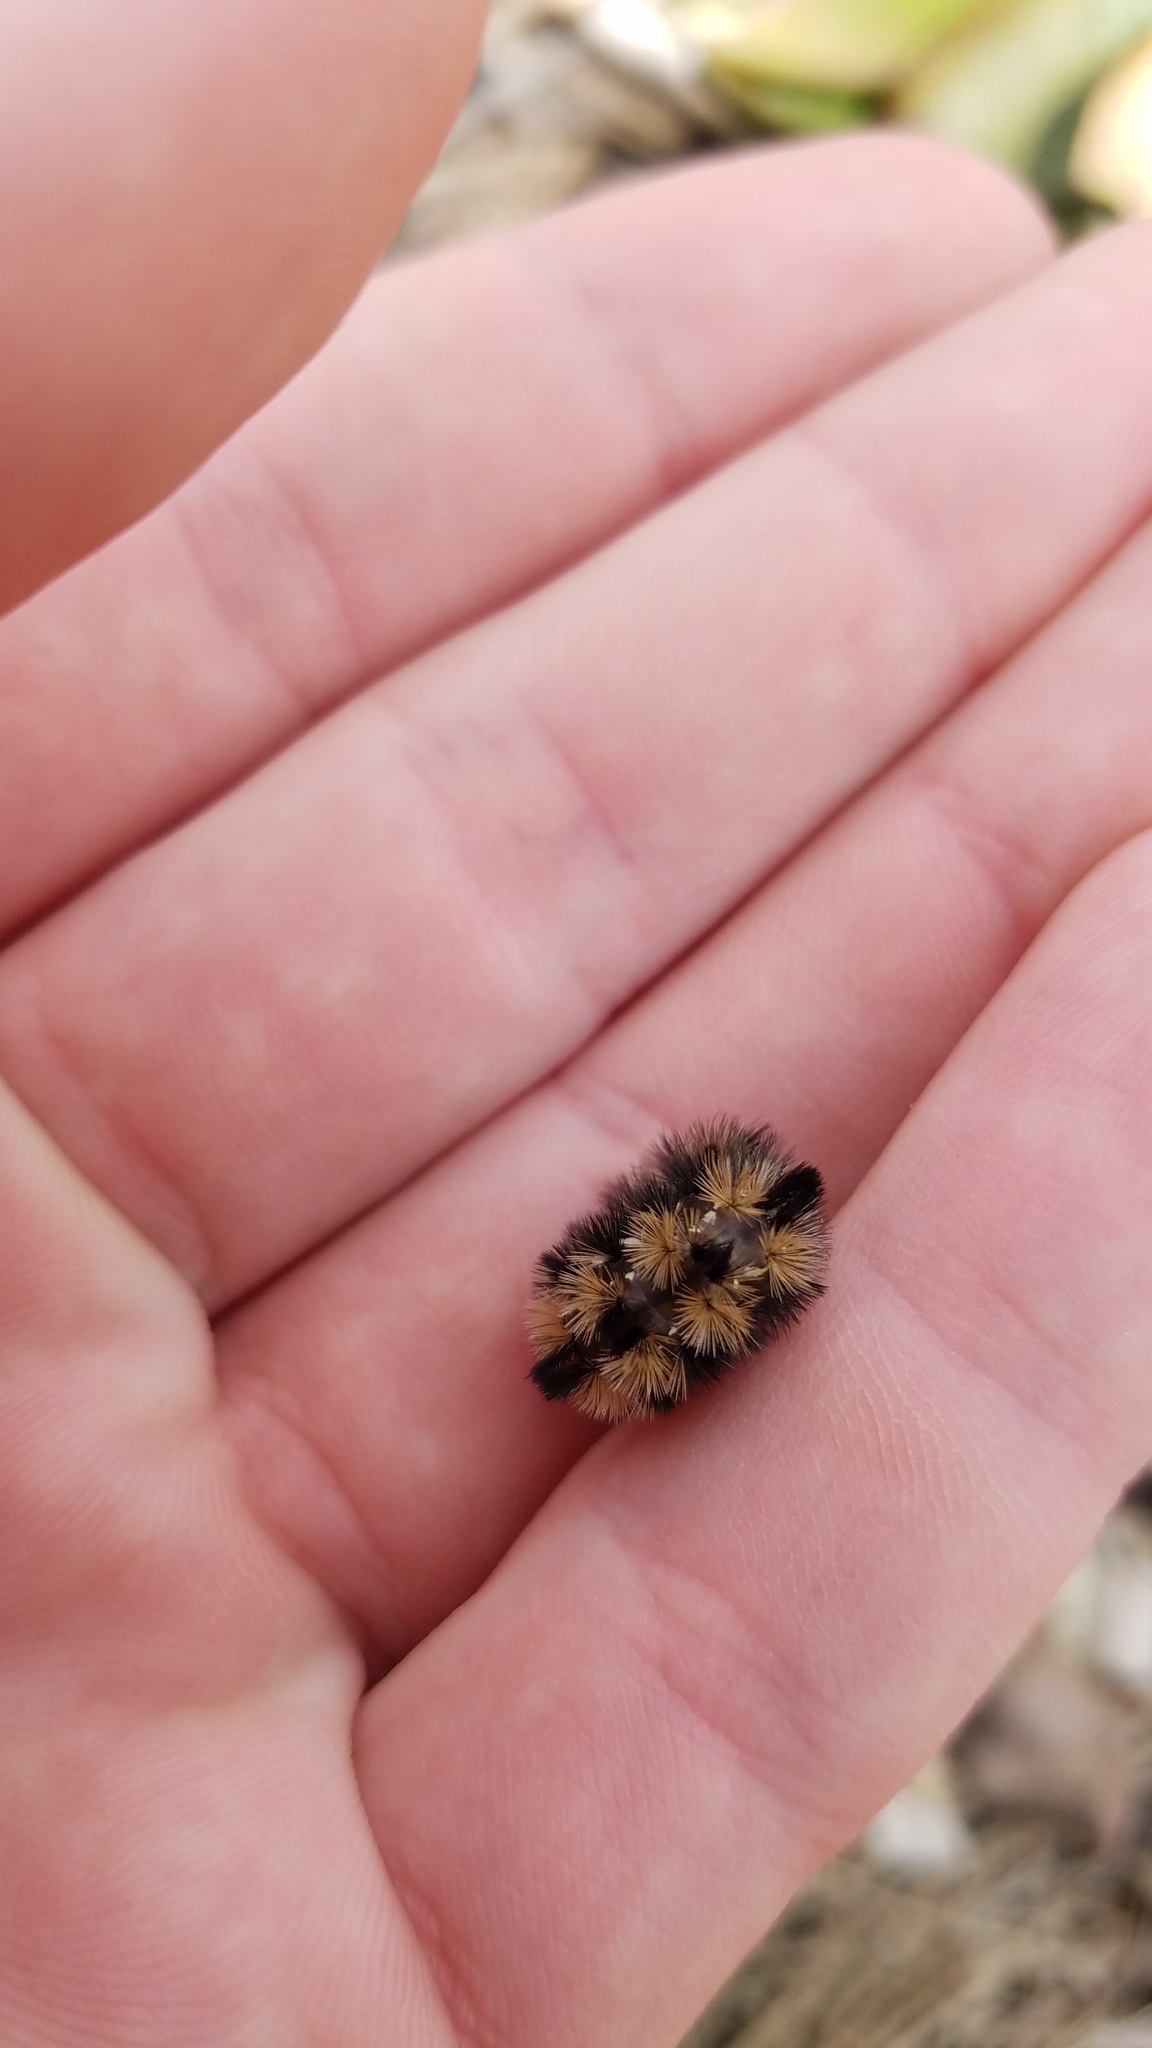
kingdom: Animalia
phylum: Arthropoda
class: Insecta
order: Lepidoptera
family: Erebidae
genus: Ctenucha
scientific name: Ctenucha virginica
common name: Virginia ctenucha moth
